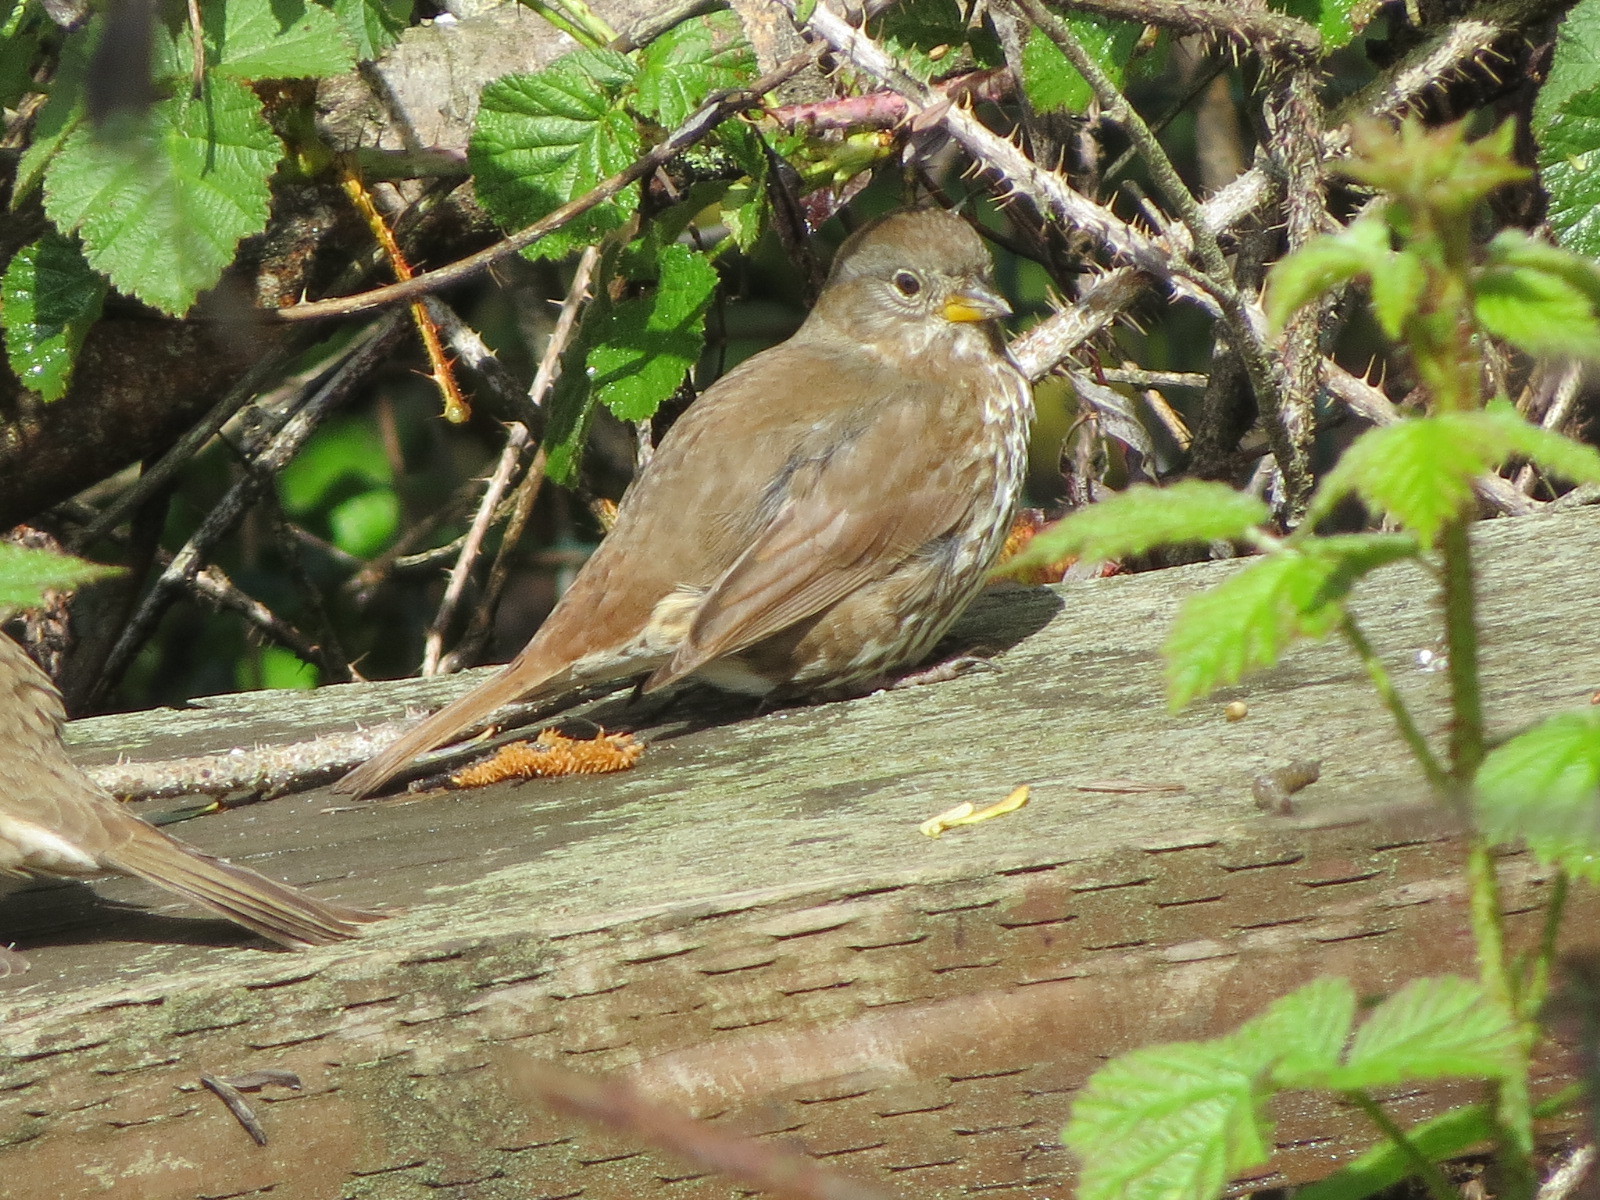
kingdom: Animalia
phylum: Chordata
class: Aves
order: Passeriformes
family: Passerellidae
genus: Passerella
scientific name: Passerella iliaca
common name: Fox sparrow
